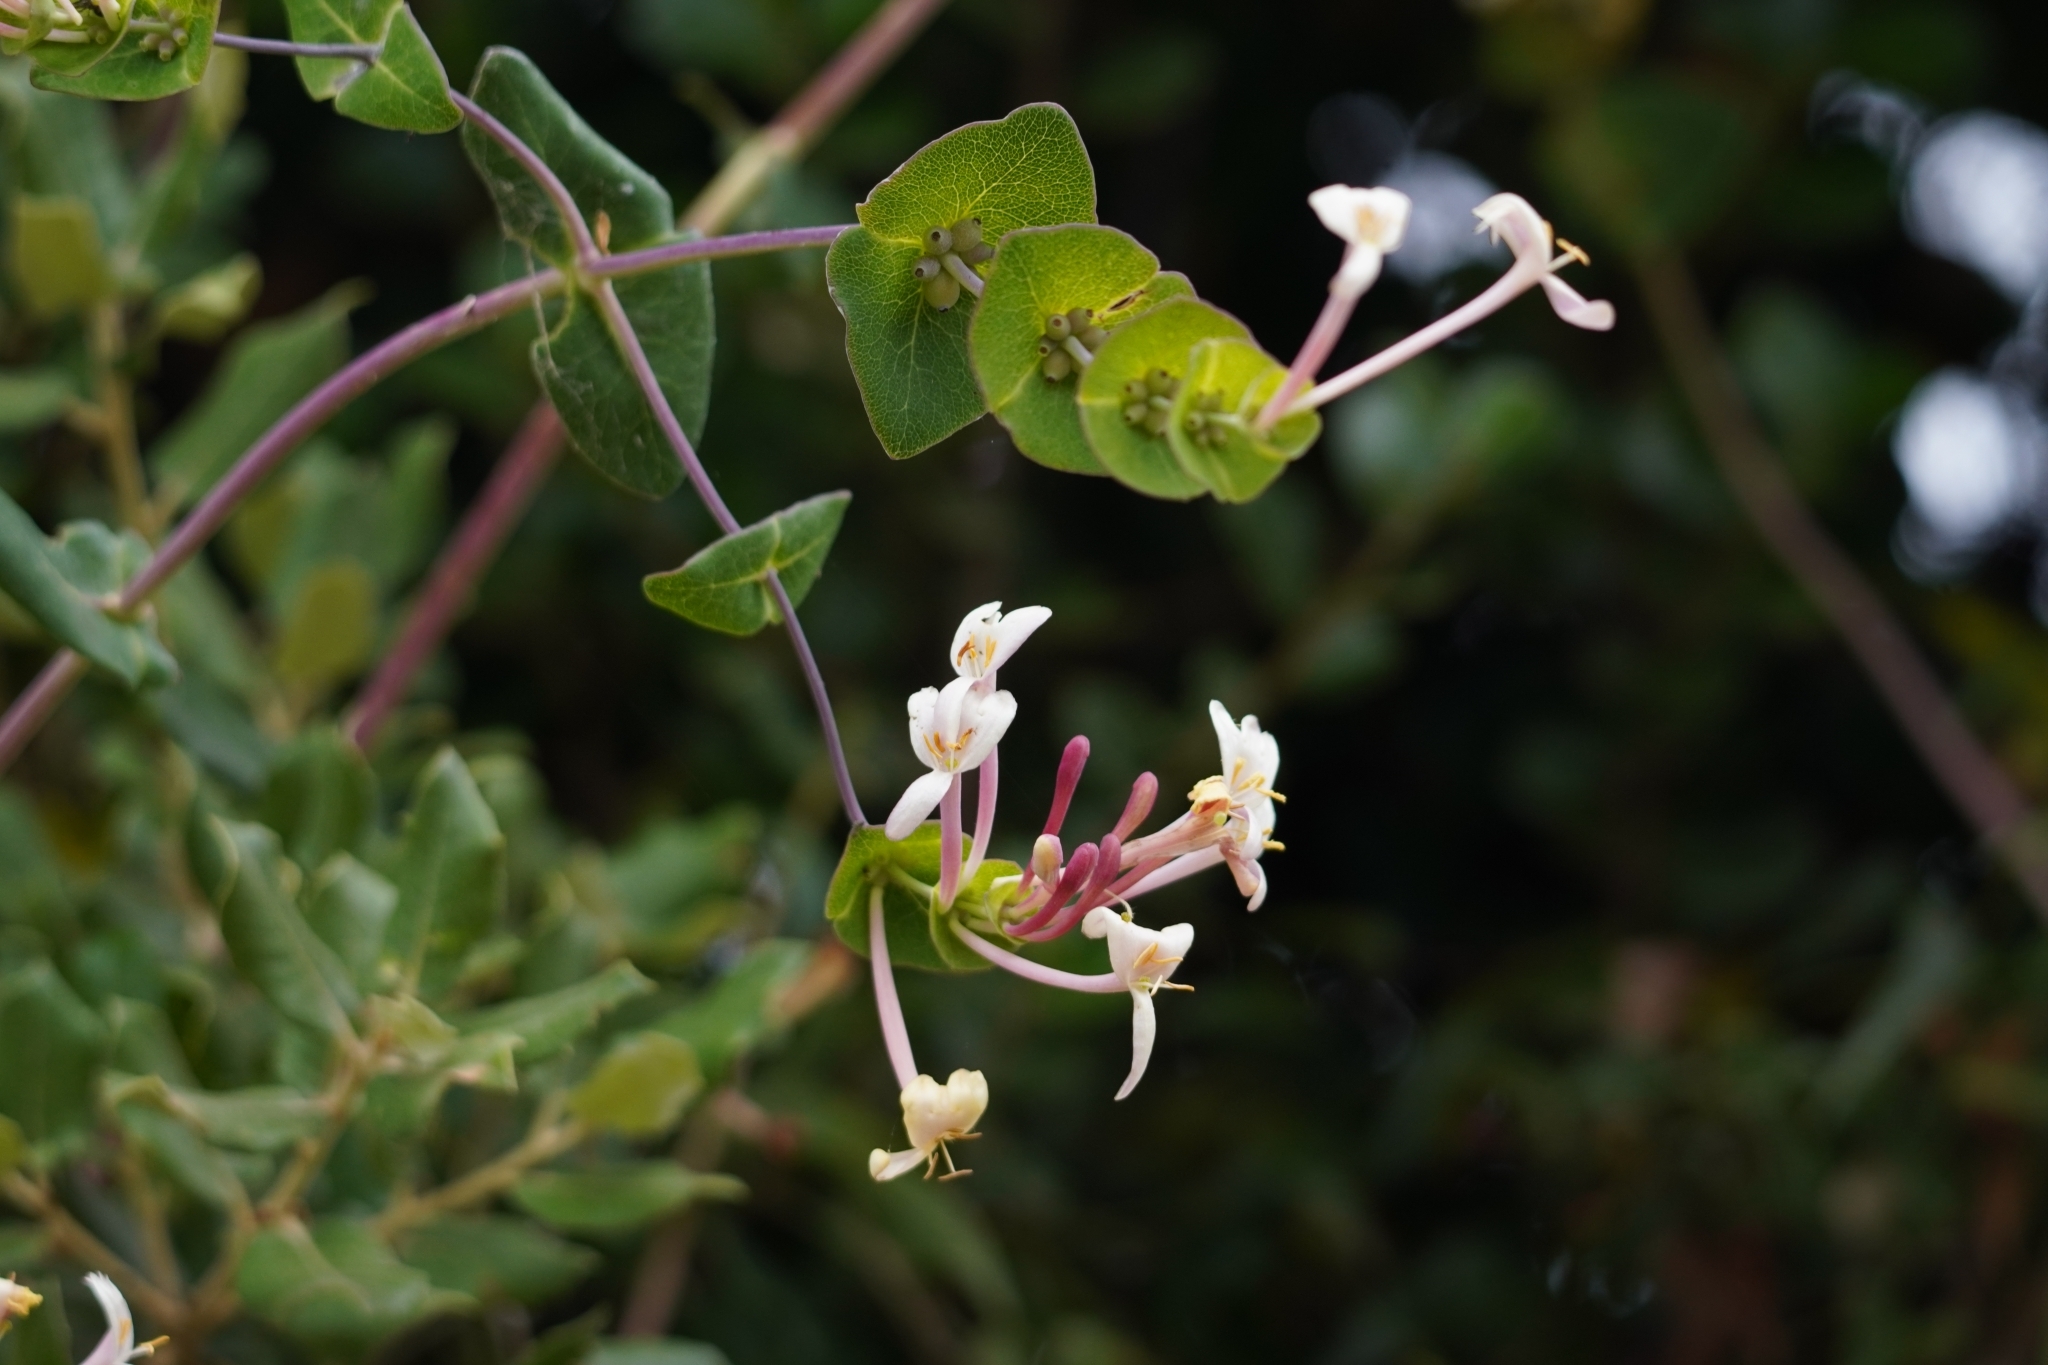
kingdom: Plantae
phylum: Tracheophyta
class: Magnoliopsida
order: Dipsacales
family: Caprifoliaceae
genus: Lonicera
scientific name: Lonicera implexa
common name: Minorca honeysuckle
